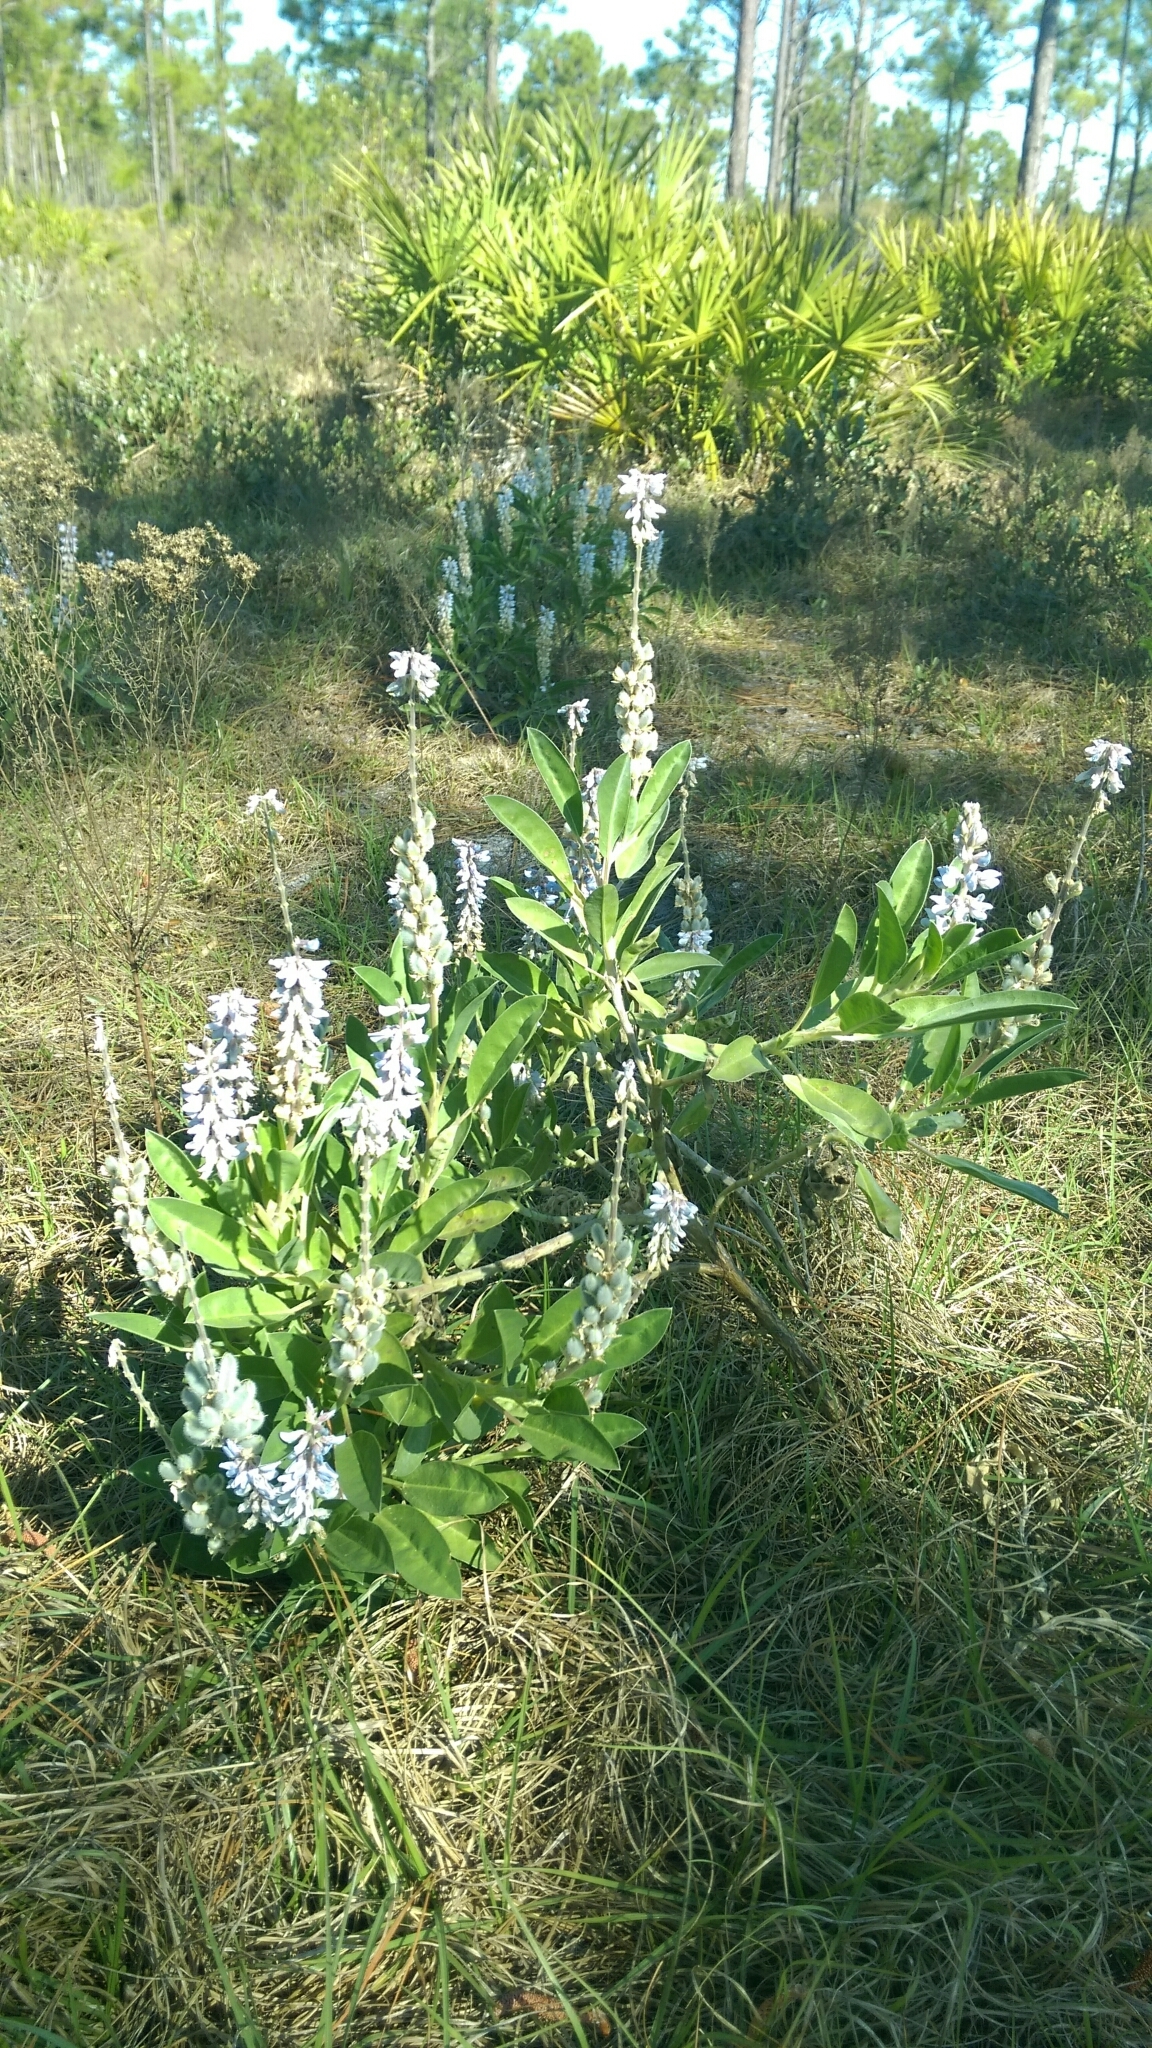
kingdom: Plantae
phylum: Tracheophyta
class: Magnoliopsida
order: Fabales
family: Fabaceae
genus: Lupinus
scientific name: Lupinus
